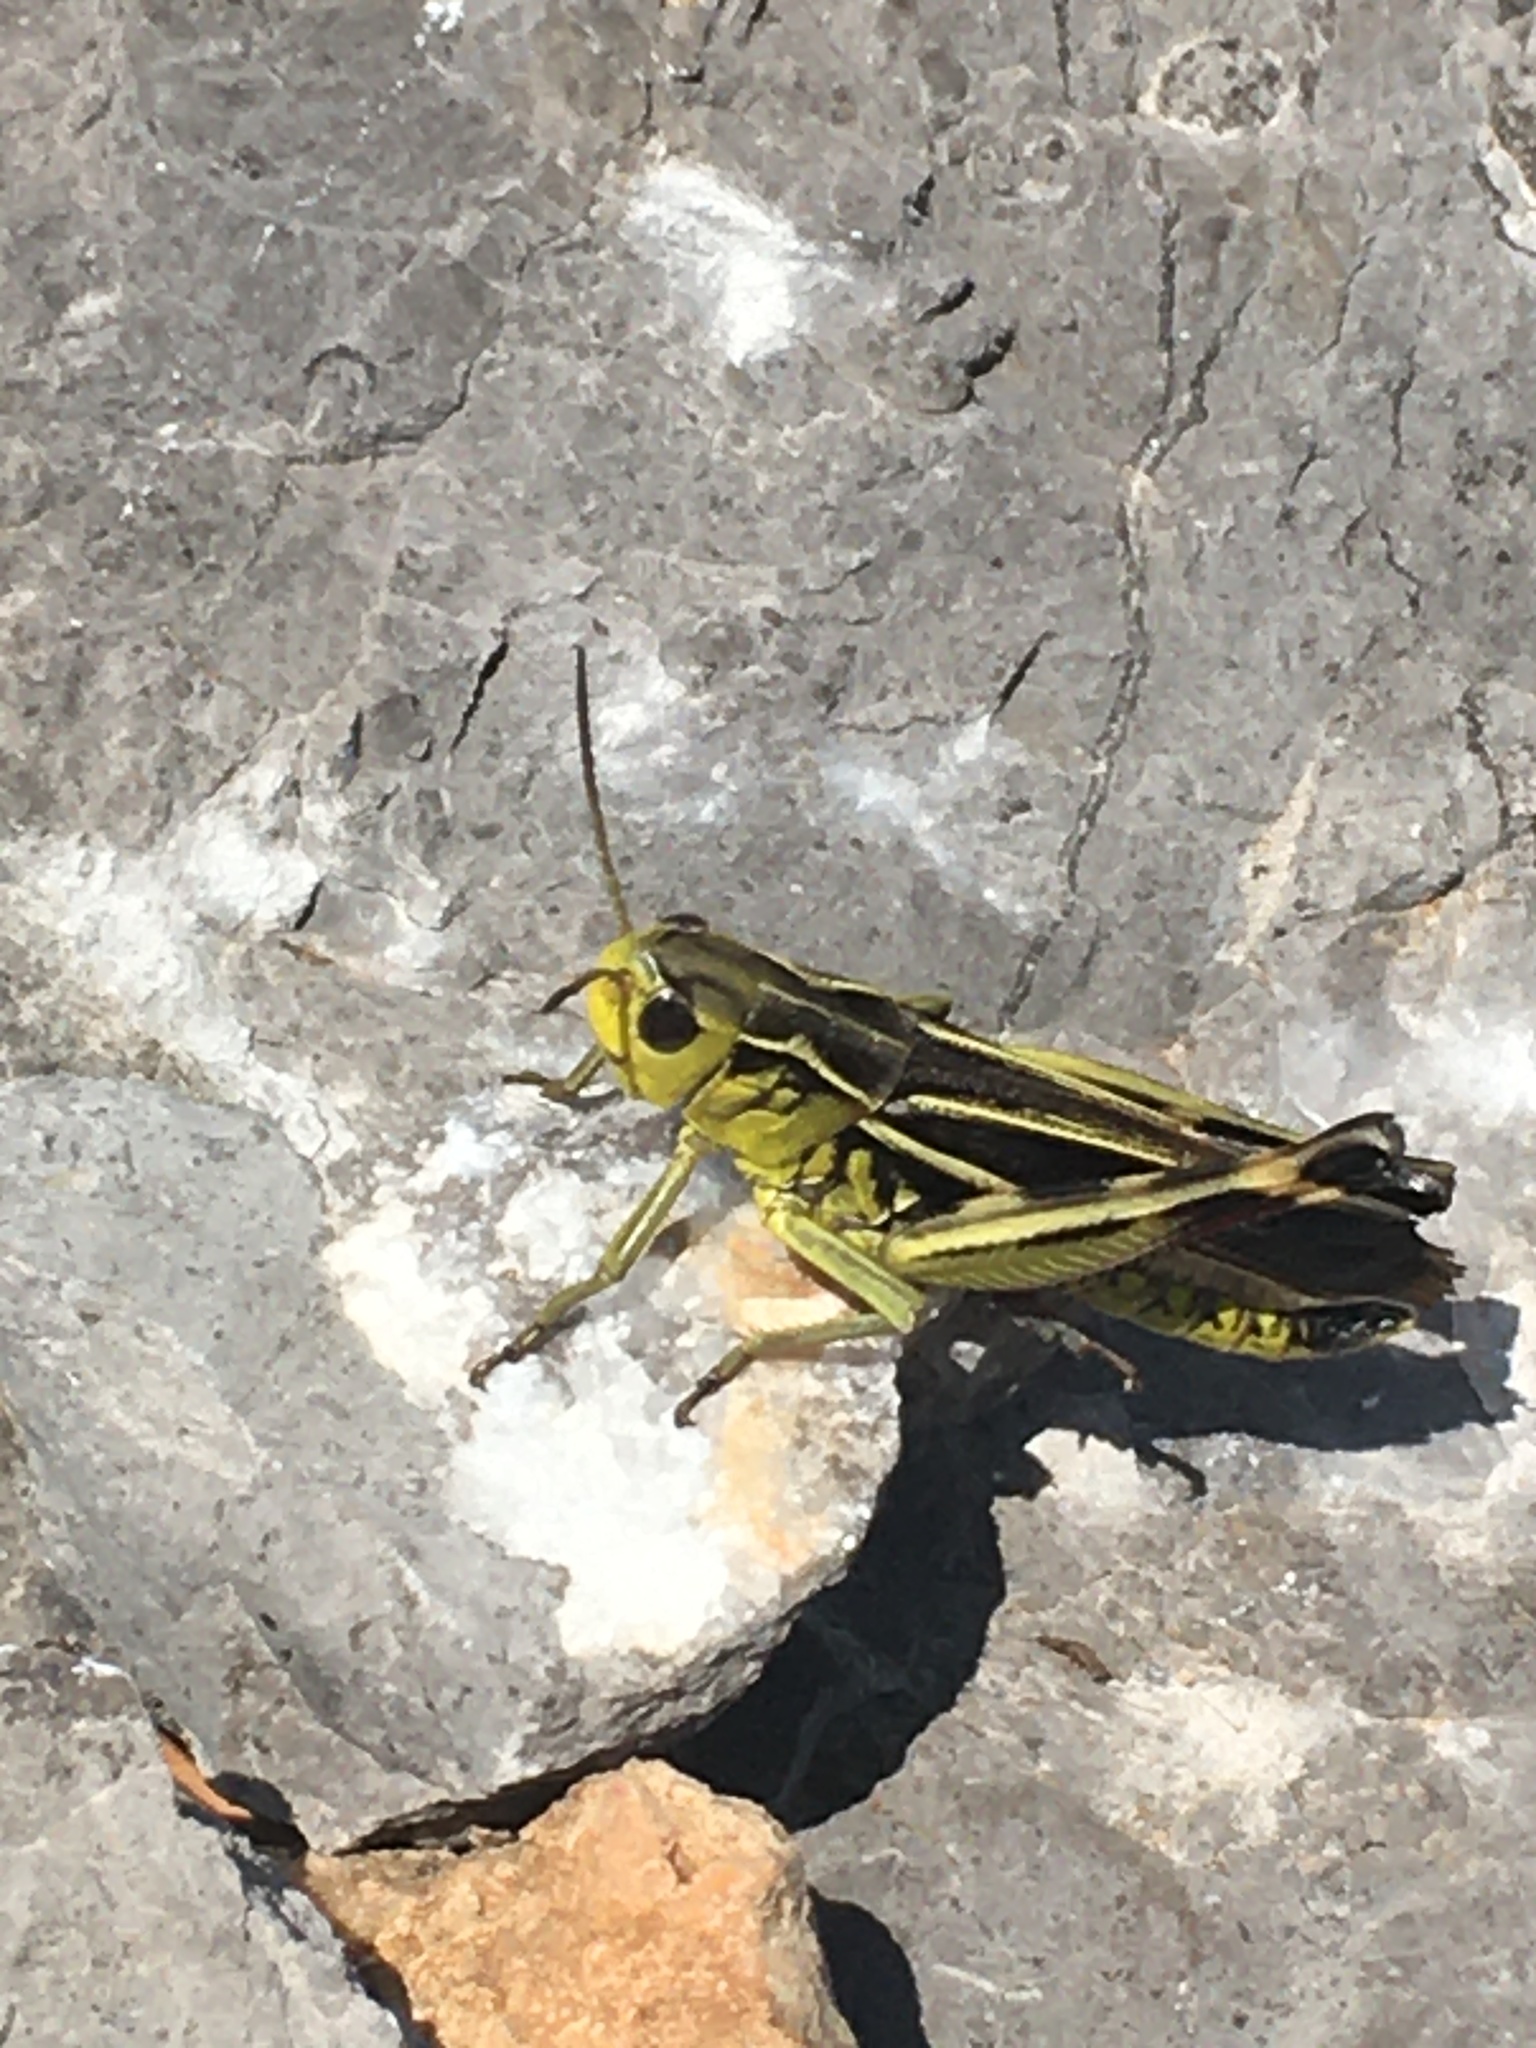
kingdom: Animalia
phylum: Arthropoda
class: Insecta
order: Orthoptera
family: Acrididae
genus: Arcyptera
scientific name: Arcyptera fusca
